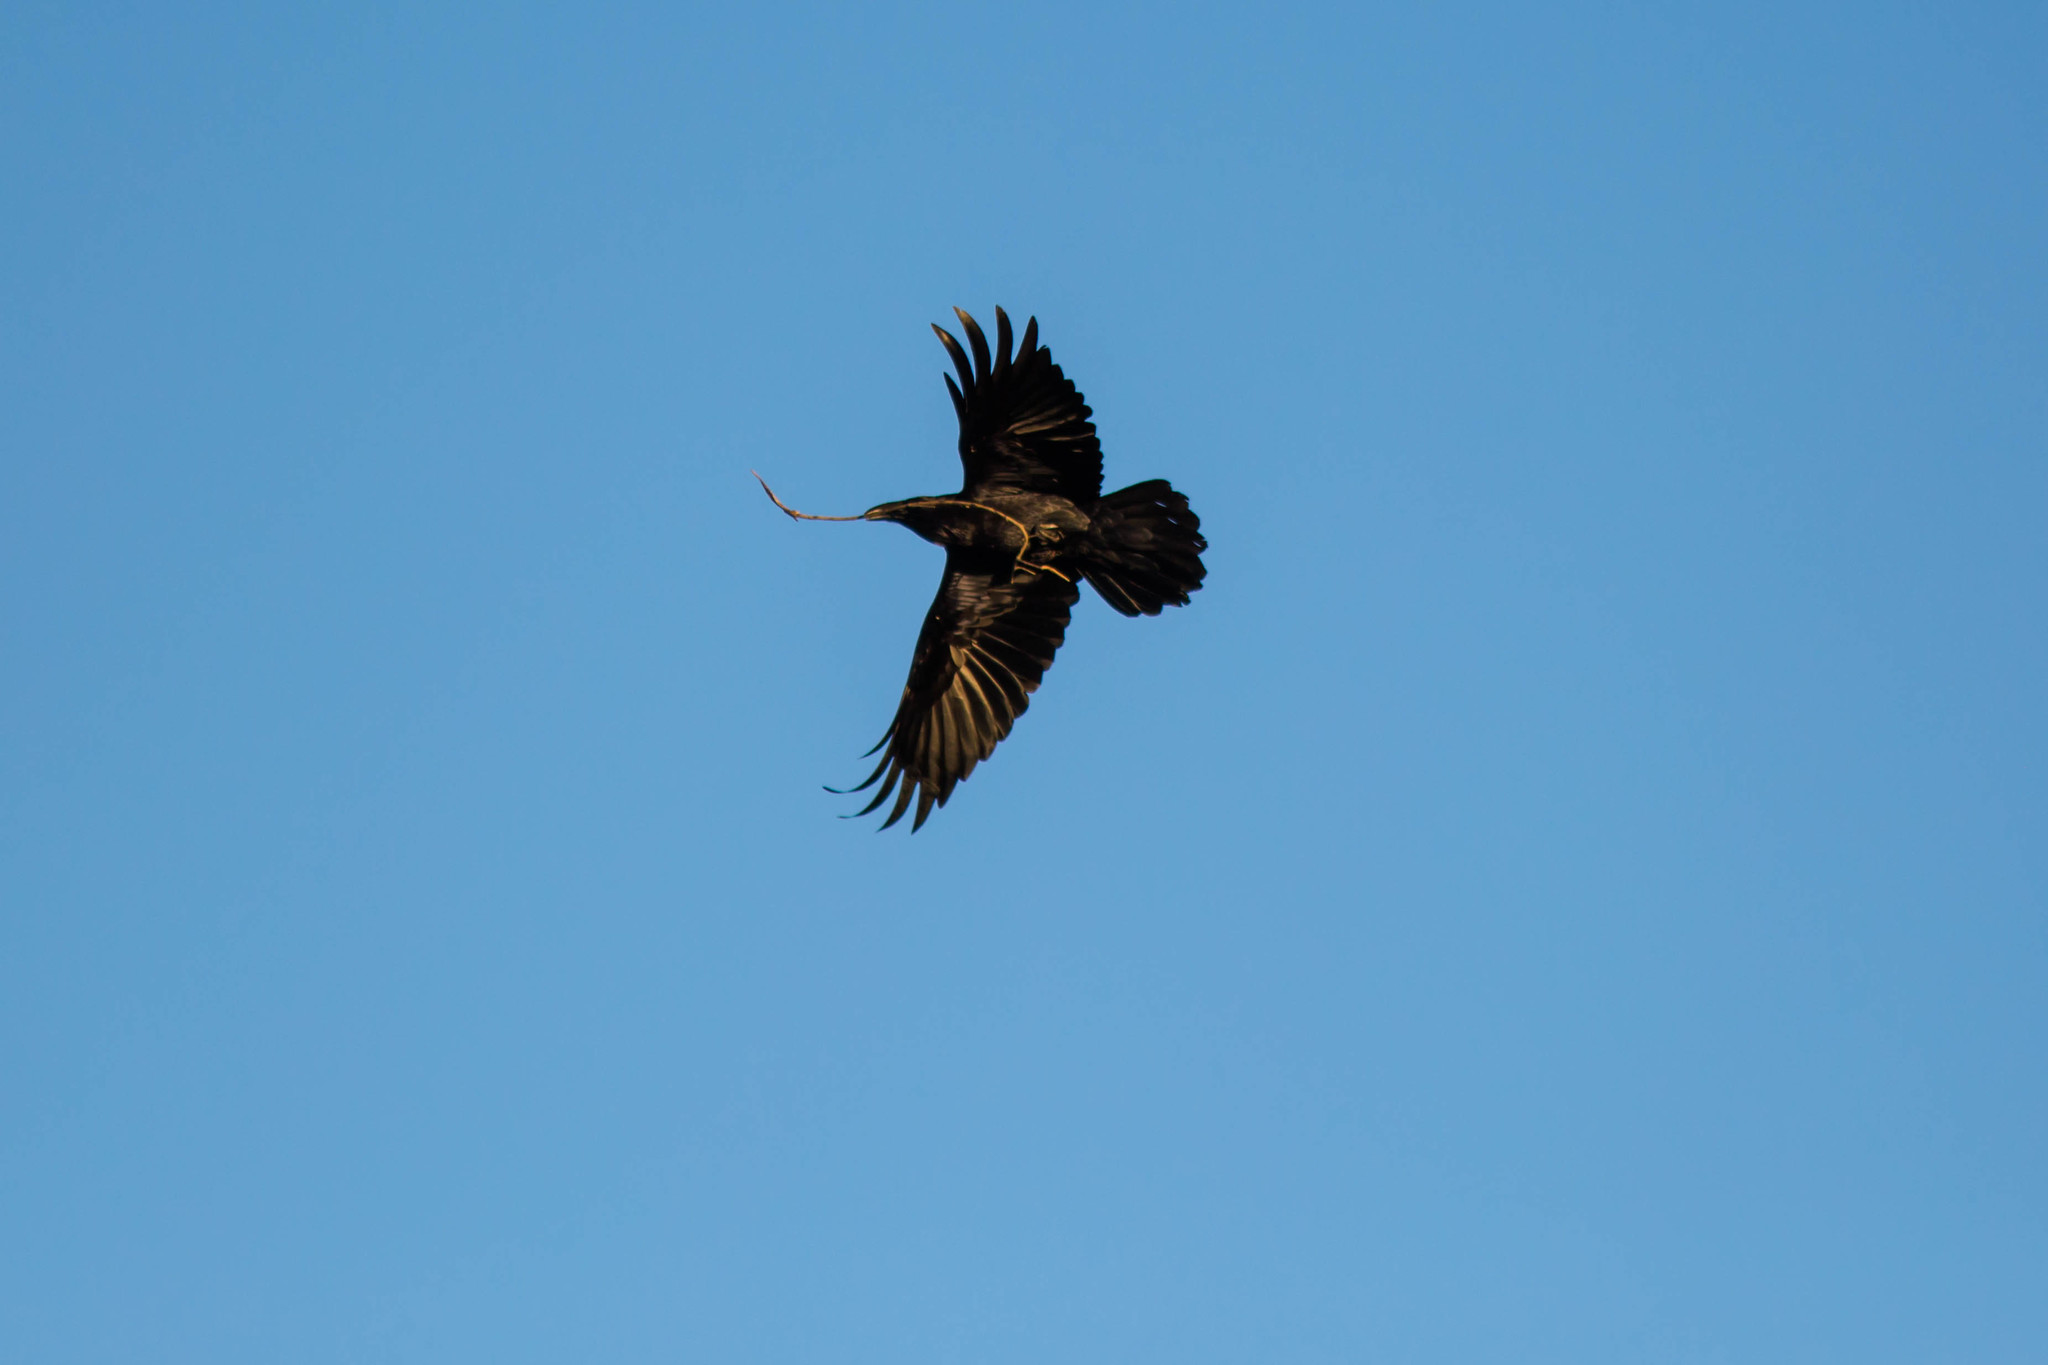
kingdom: Animalia
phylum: Chordata
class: Aves
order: Passeriformes
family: Corvidae
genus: Corvus
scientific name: Corvus corax
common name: Common raven
